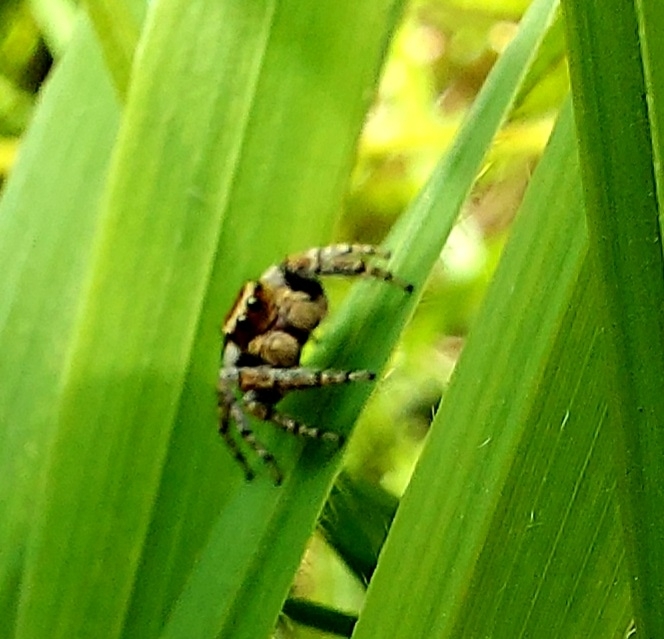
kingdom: Animalia
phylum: Arthropoda
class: Arachnida
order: Araneae
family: Salticidae
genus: Evarcha
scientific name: Evarcha falcata
